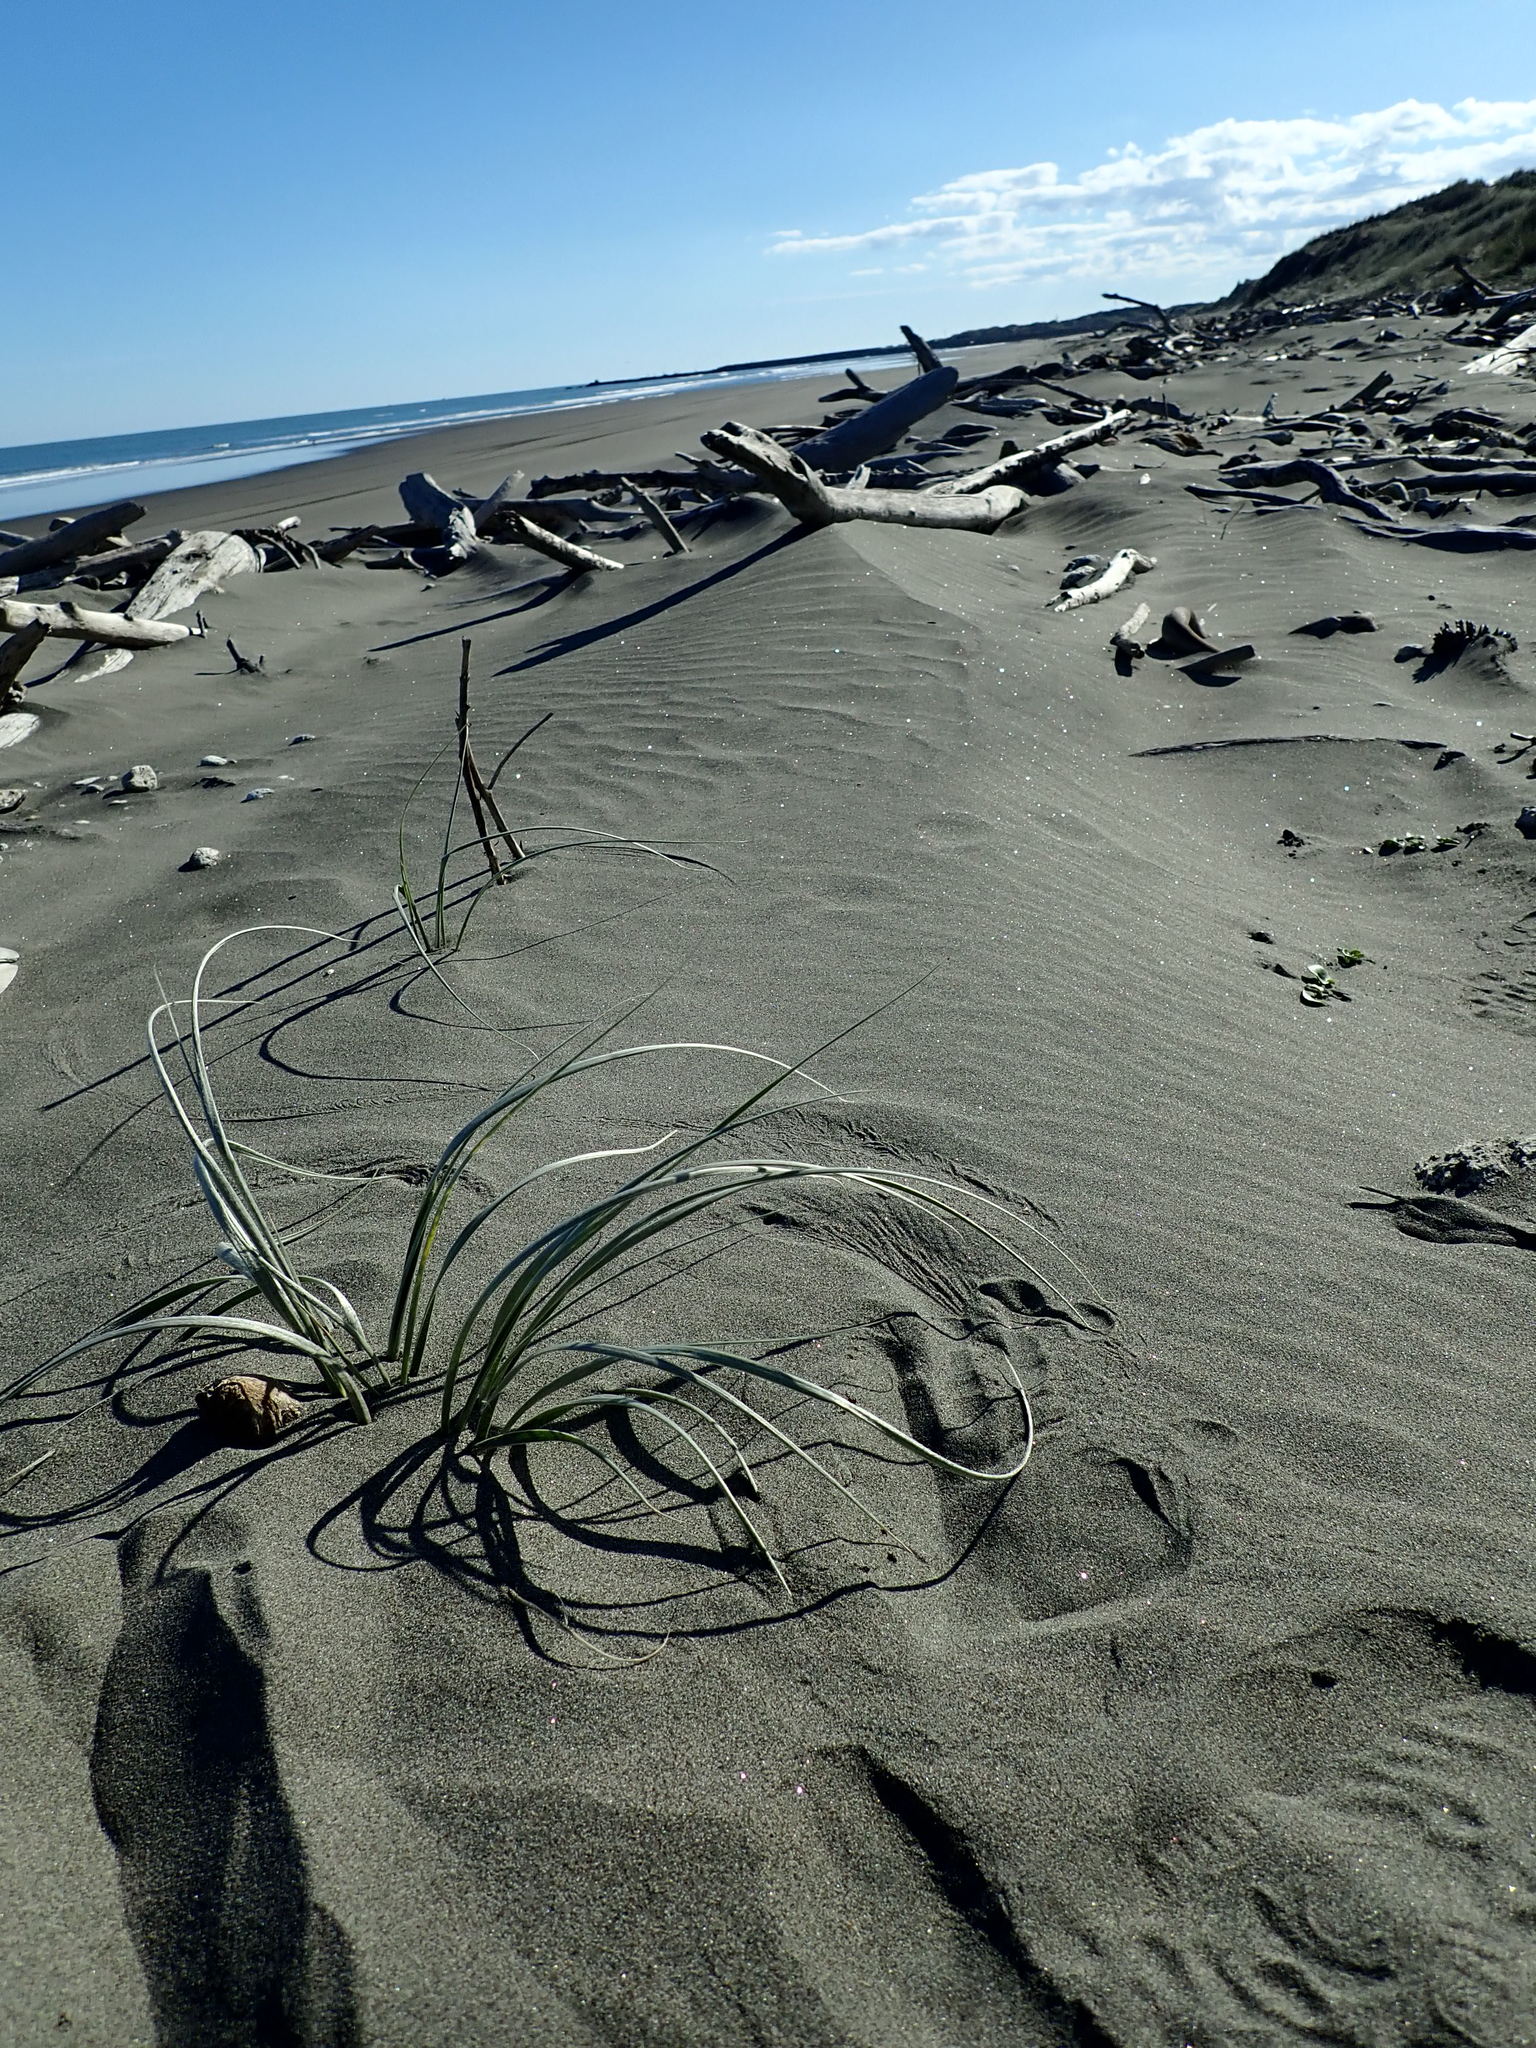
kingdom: Plantae
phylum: Tracheophyta
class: Magnoliopsida
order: Solanales
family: Convolvulaceae
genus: Calystegia
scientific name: Calystegia soldanella
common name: Sea bindweed
